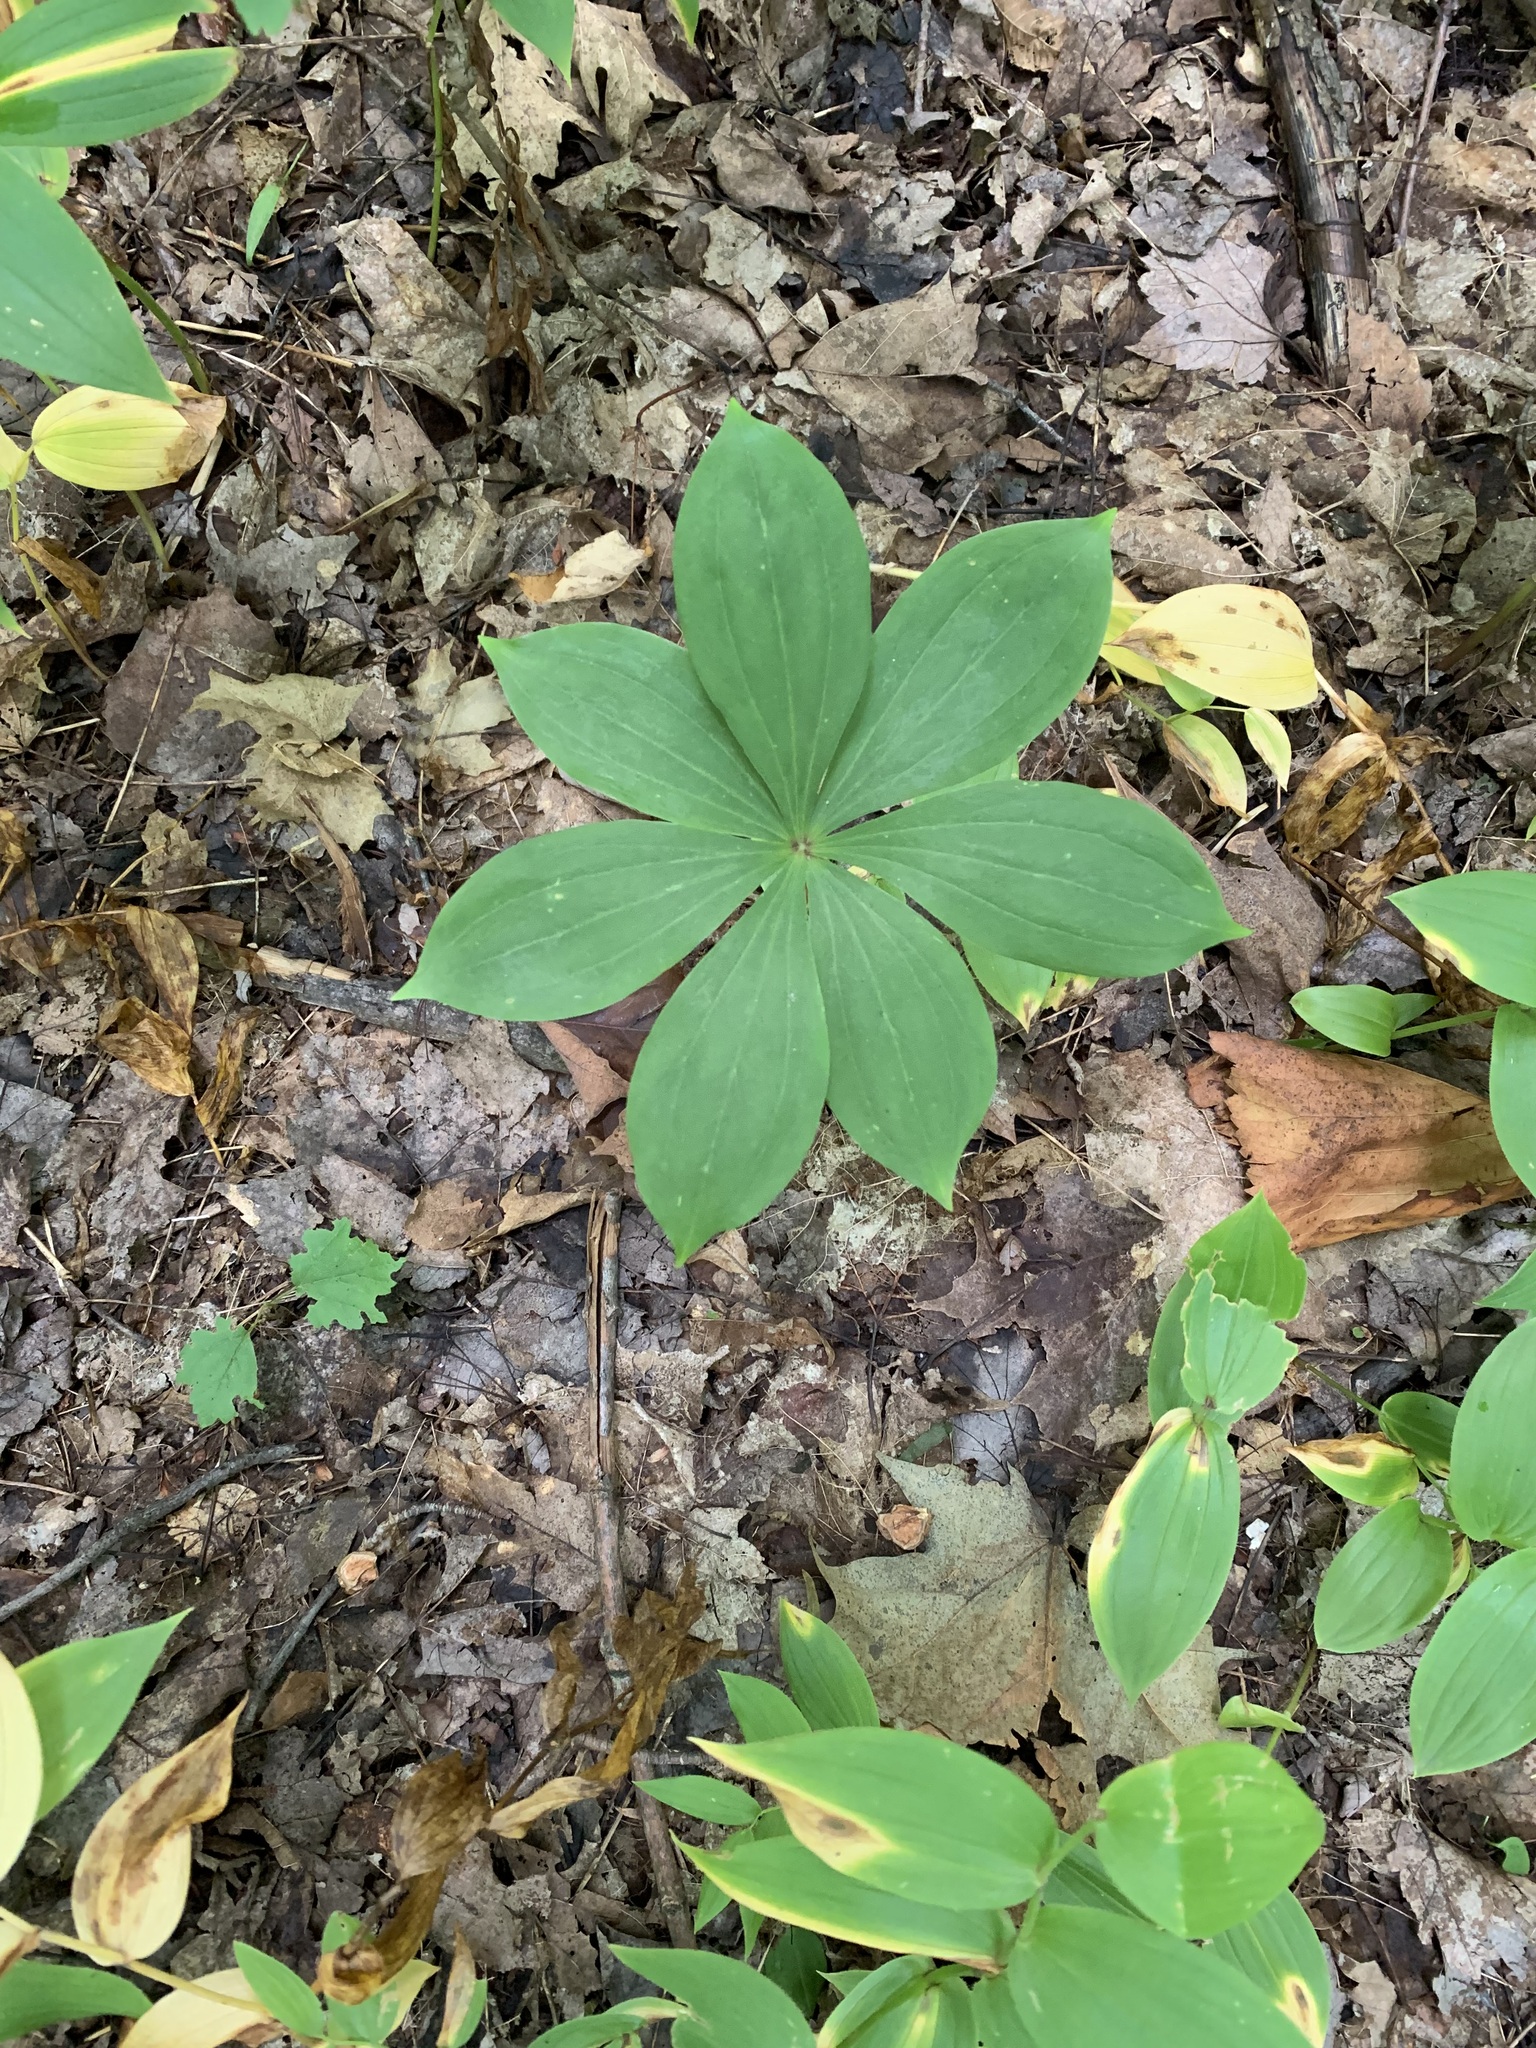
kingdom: Plantae
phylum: Tracheophyta
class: Liliopsida
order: Liliales
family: Liliaceae
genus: Medeola
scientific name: Medeola virginiana
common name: Indian cucumber-root
